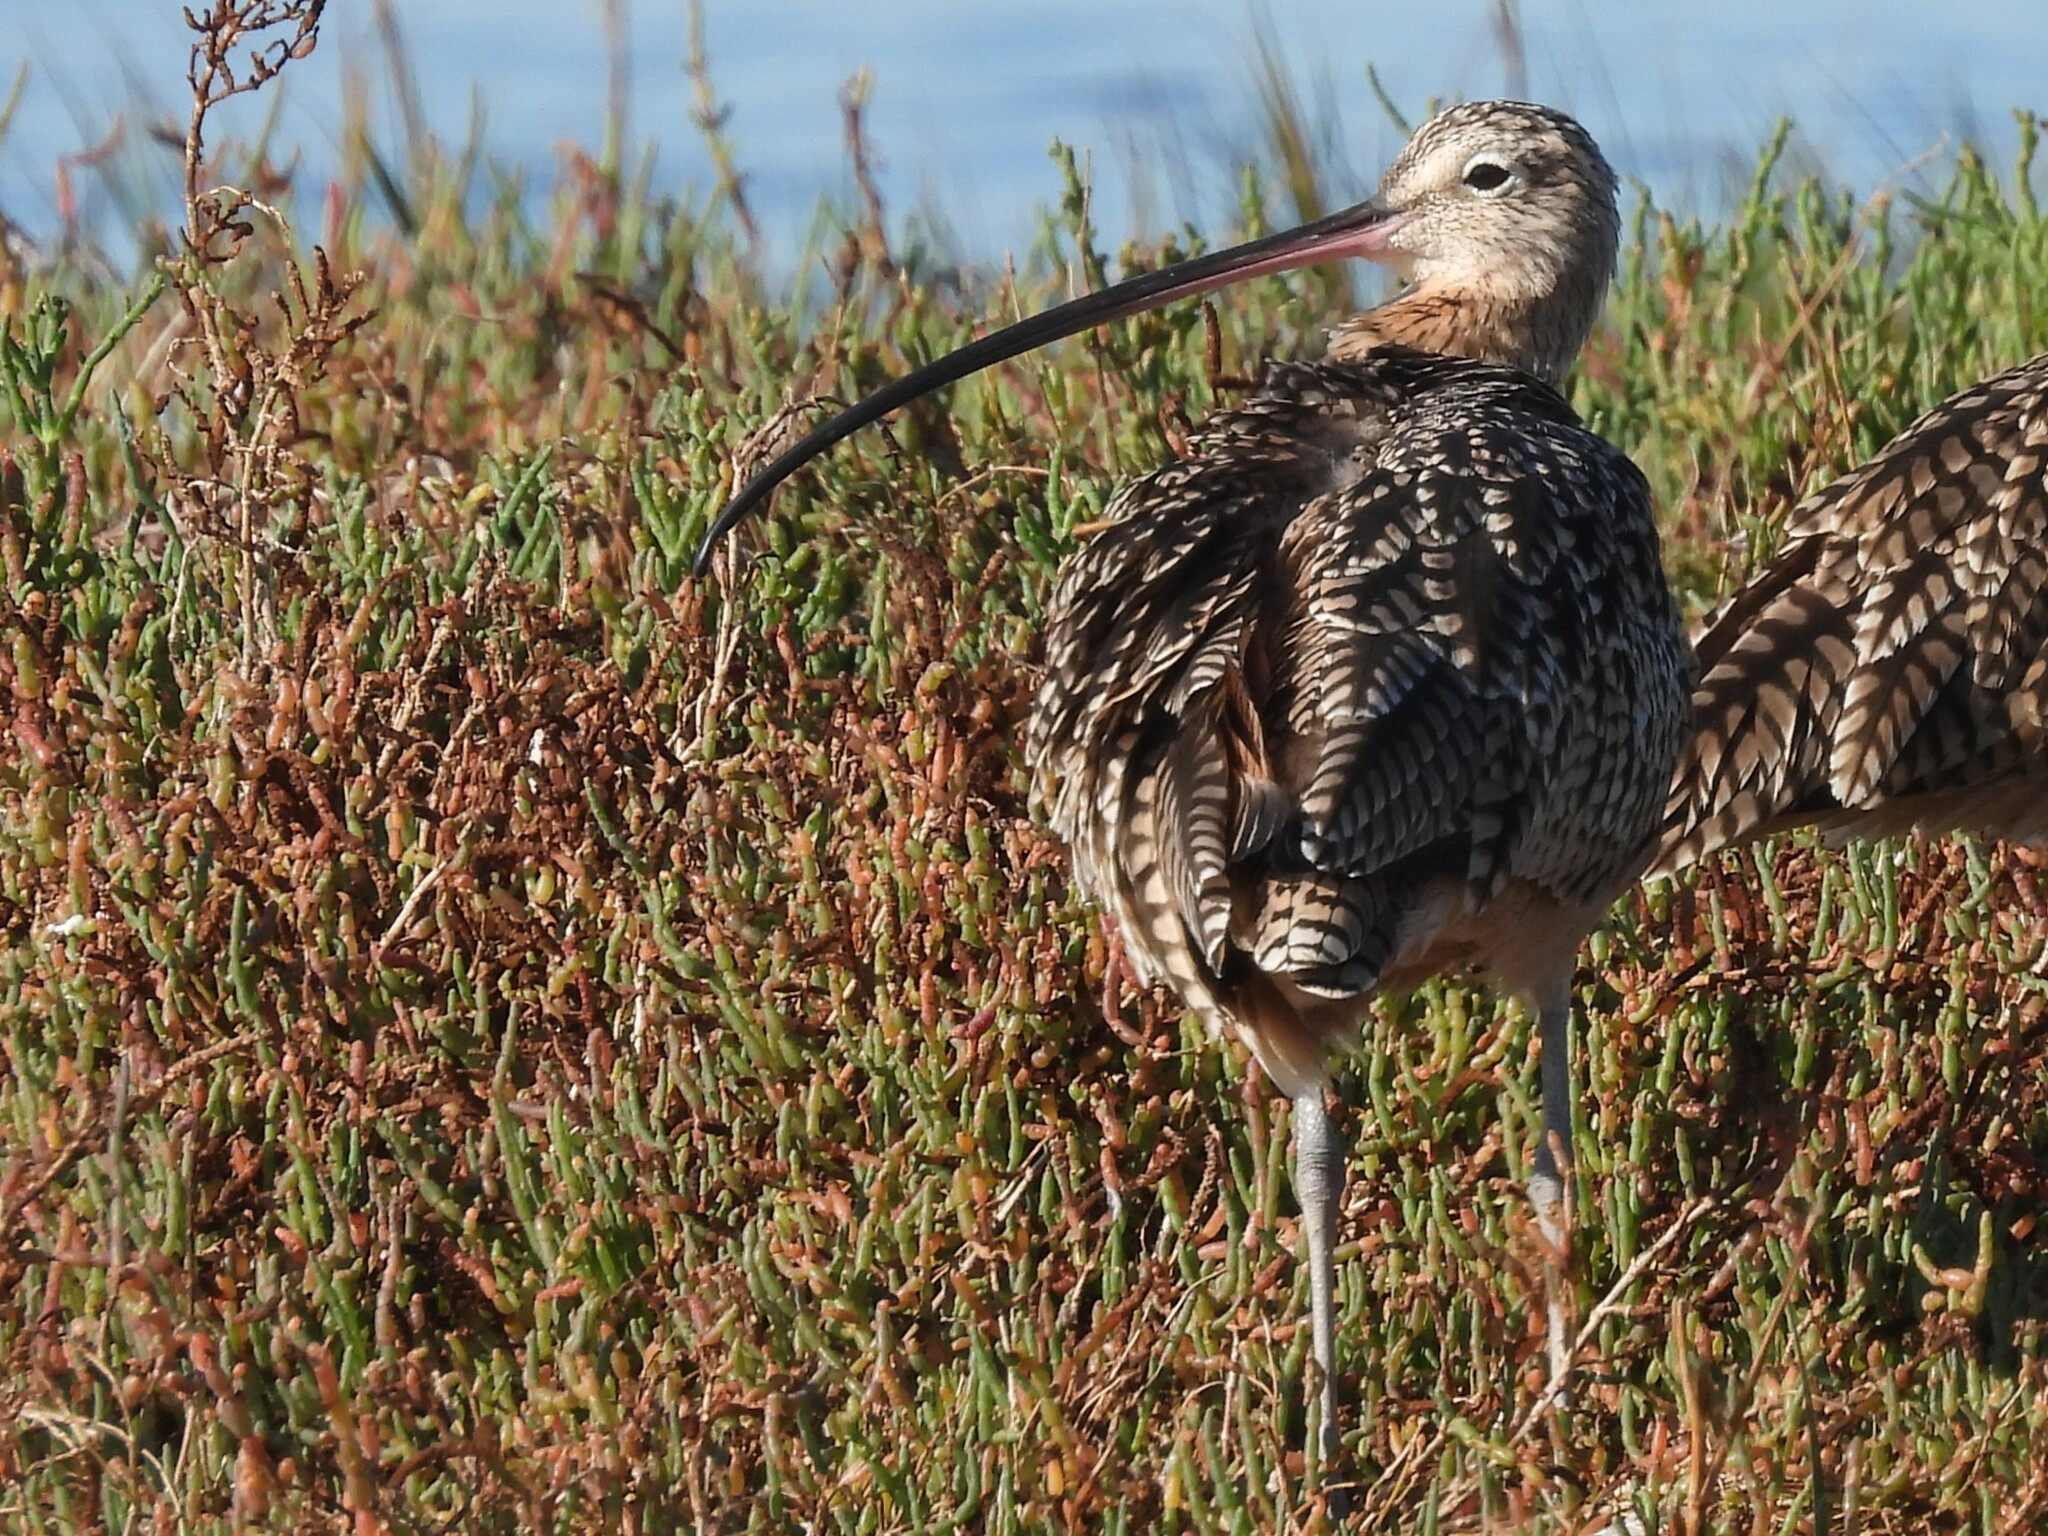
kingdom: Animalia
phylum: Chordata
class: Aves
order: Charadriiformes
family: Scolopacidae
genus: Numenius
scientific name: Numenius americanus
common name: Long-billed curlew
